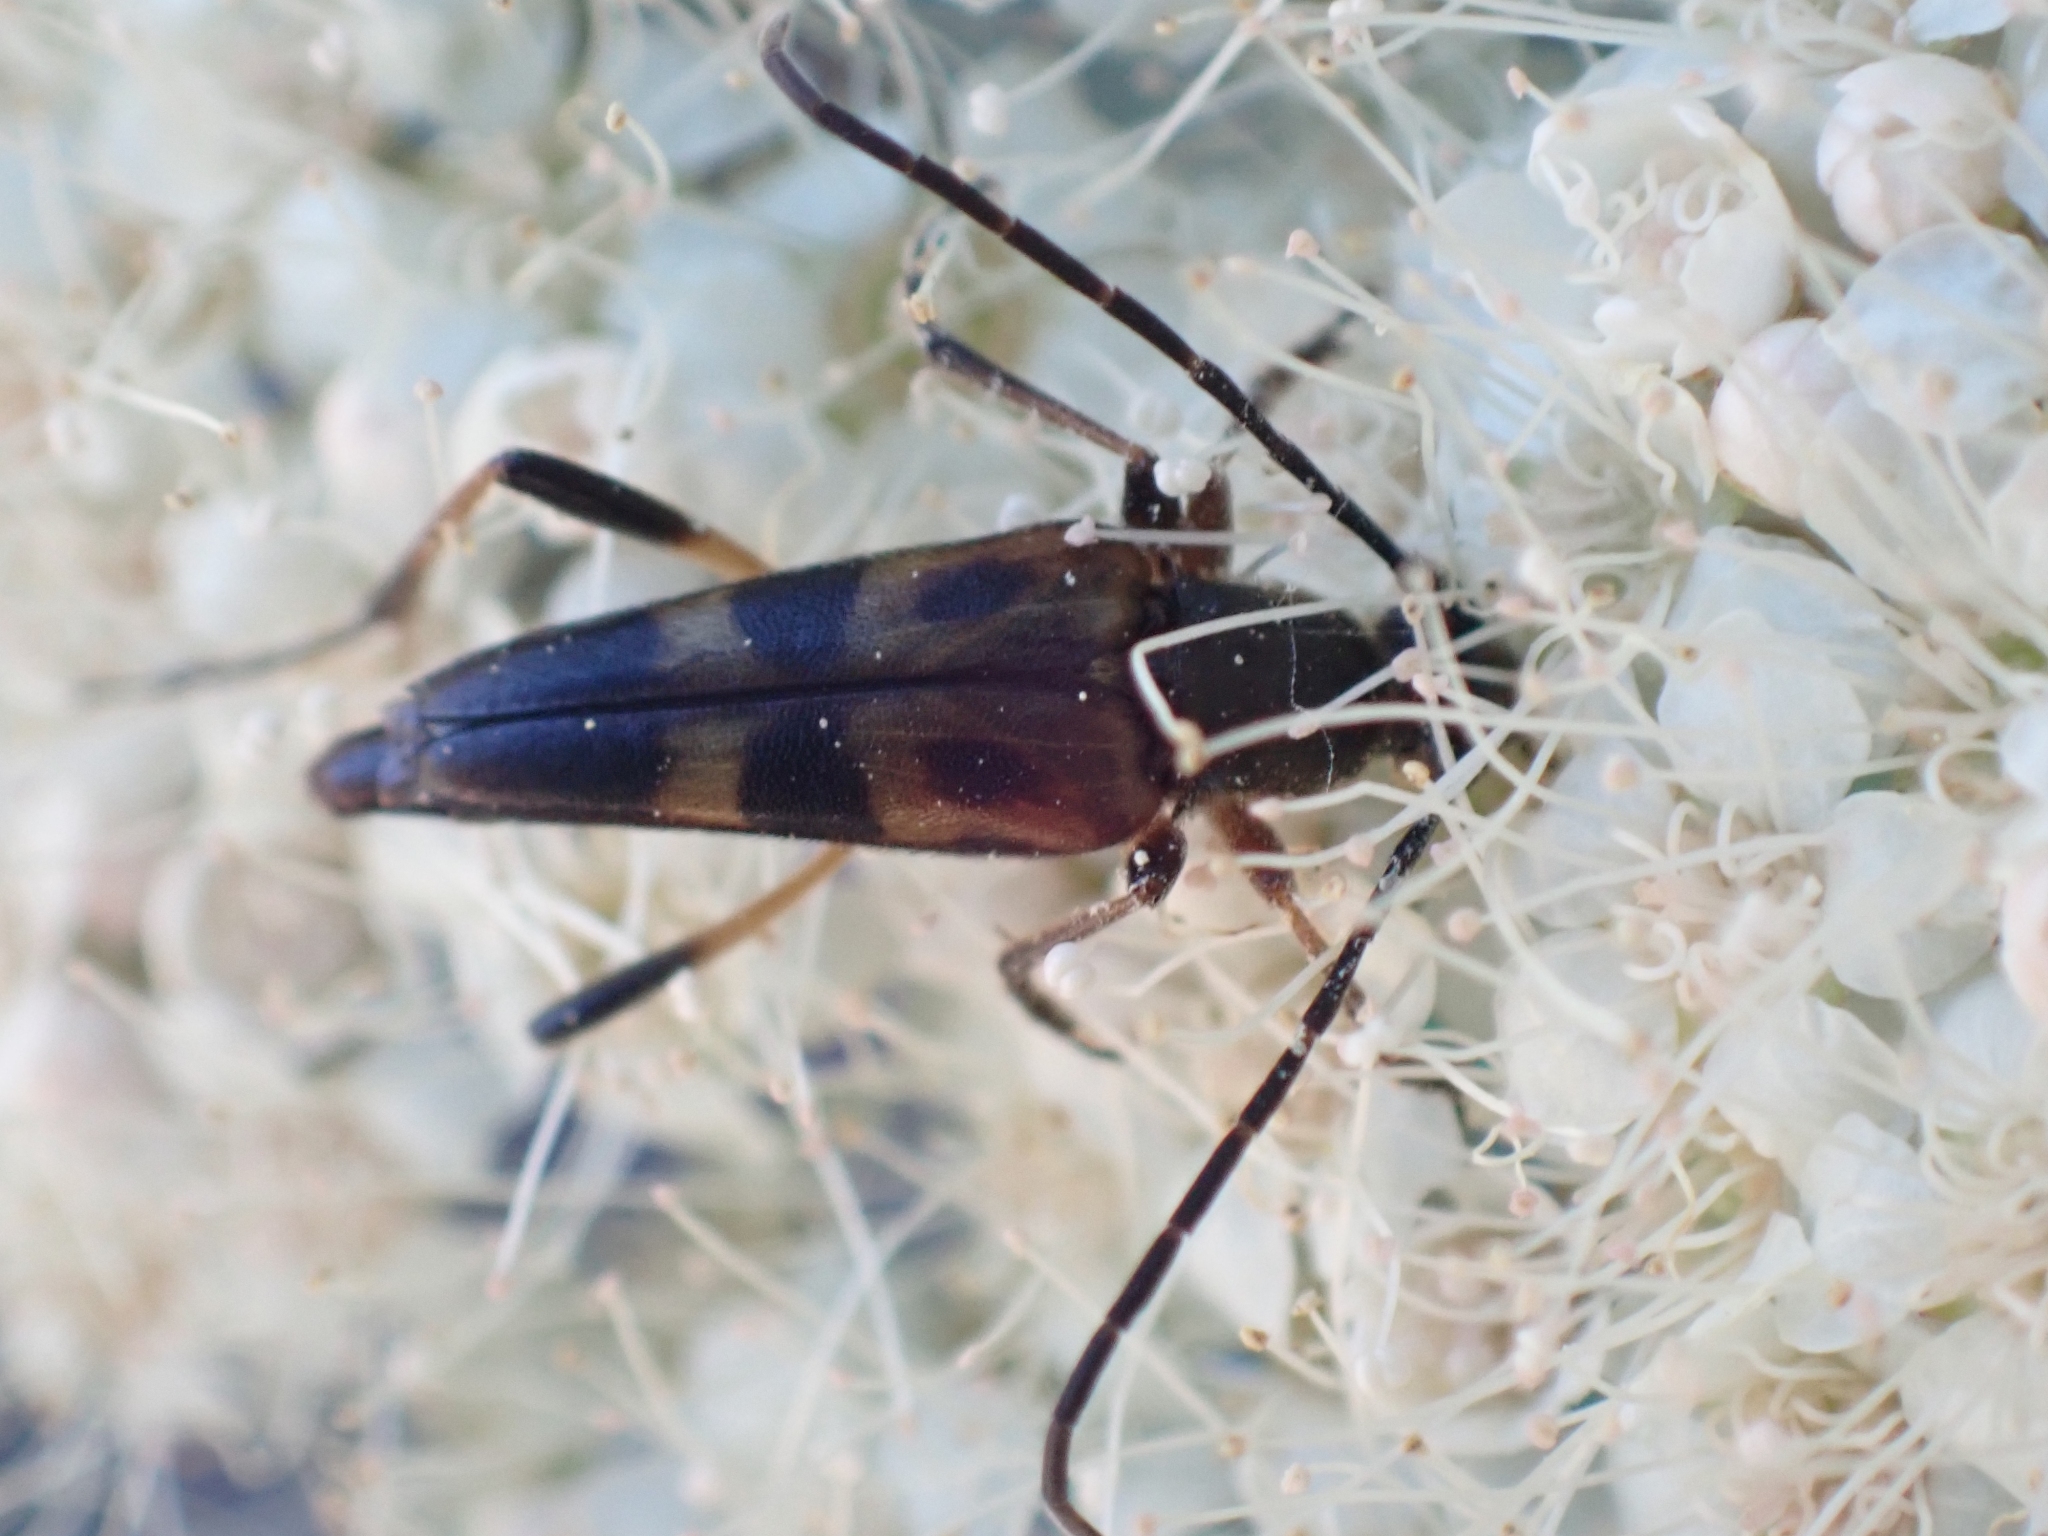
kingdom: Animalia
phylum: Arthropoda
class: Insecta
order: Coleoptera
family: Cerambycidae
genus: Etorofus
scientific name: Etorofus obliteratus
